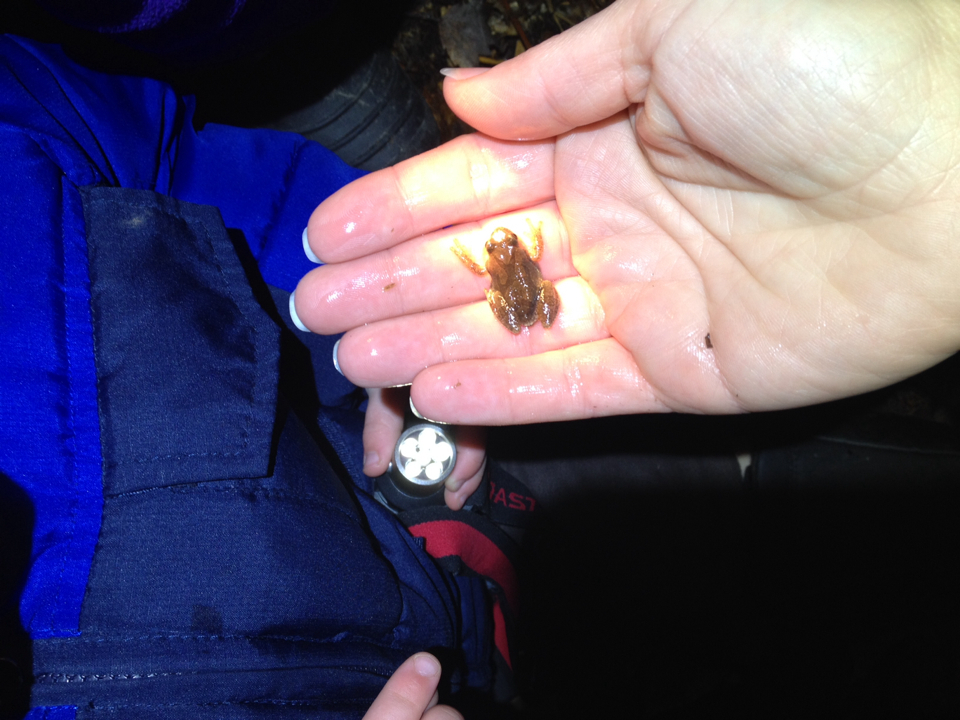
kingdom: Animalia
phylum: Chordata
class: Amphibia
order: Anura
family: Hylidae
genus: Pseudacris
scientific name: Pseudacris crucifer
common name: Spring peeper
